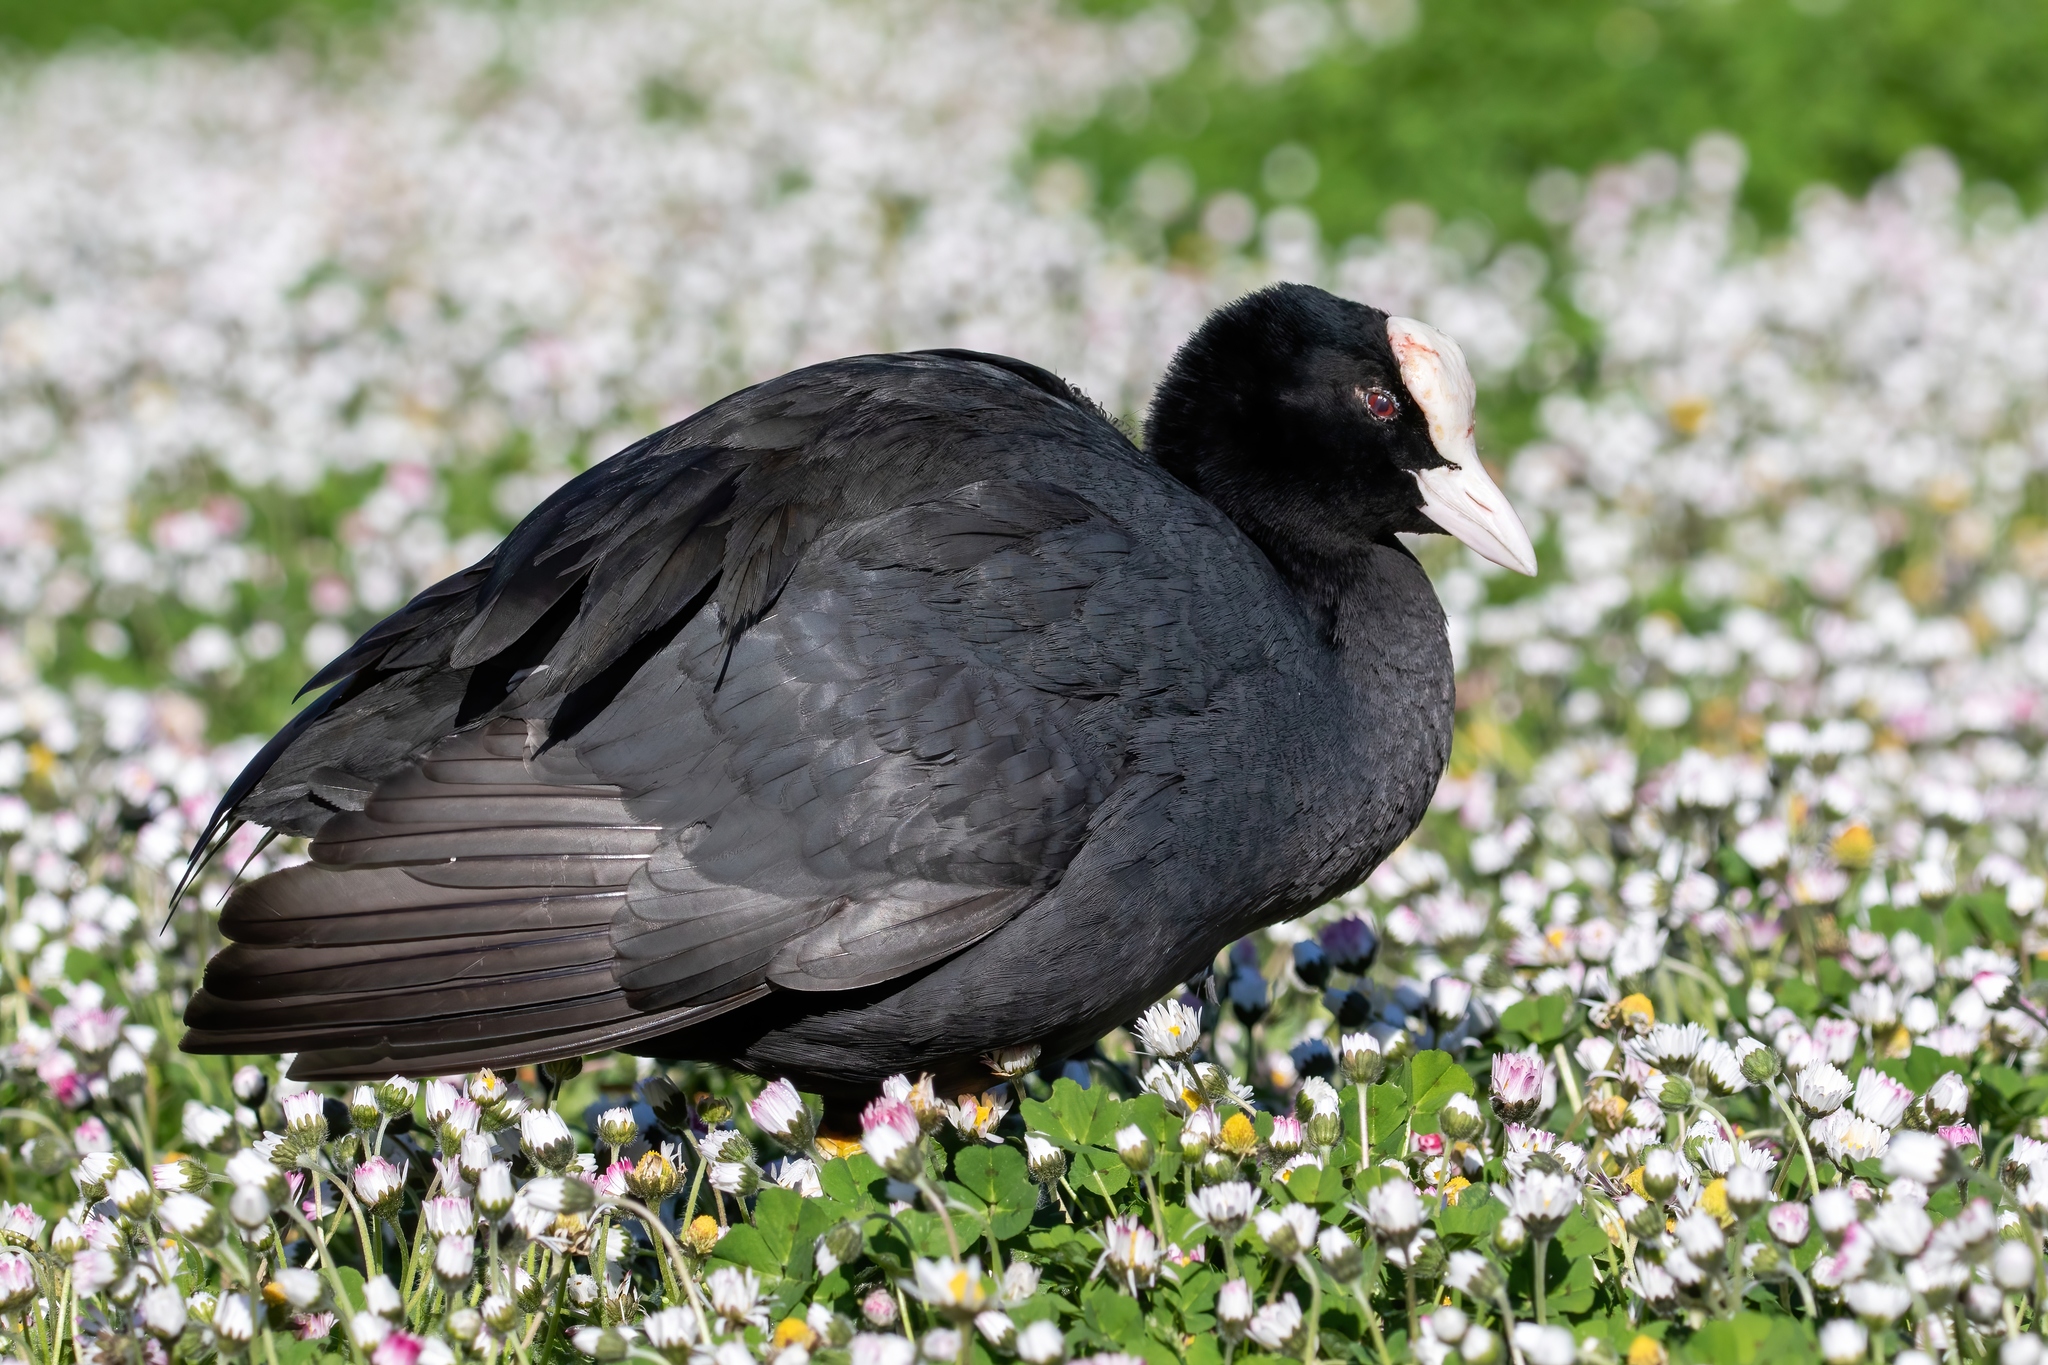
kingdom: Animalia
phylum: Chordata
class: Aves
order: Gruiformes
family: Rallidae
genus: Fulica
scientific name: Fulica atra
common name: Eurasian coot
